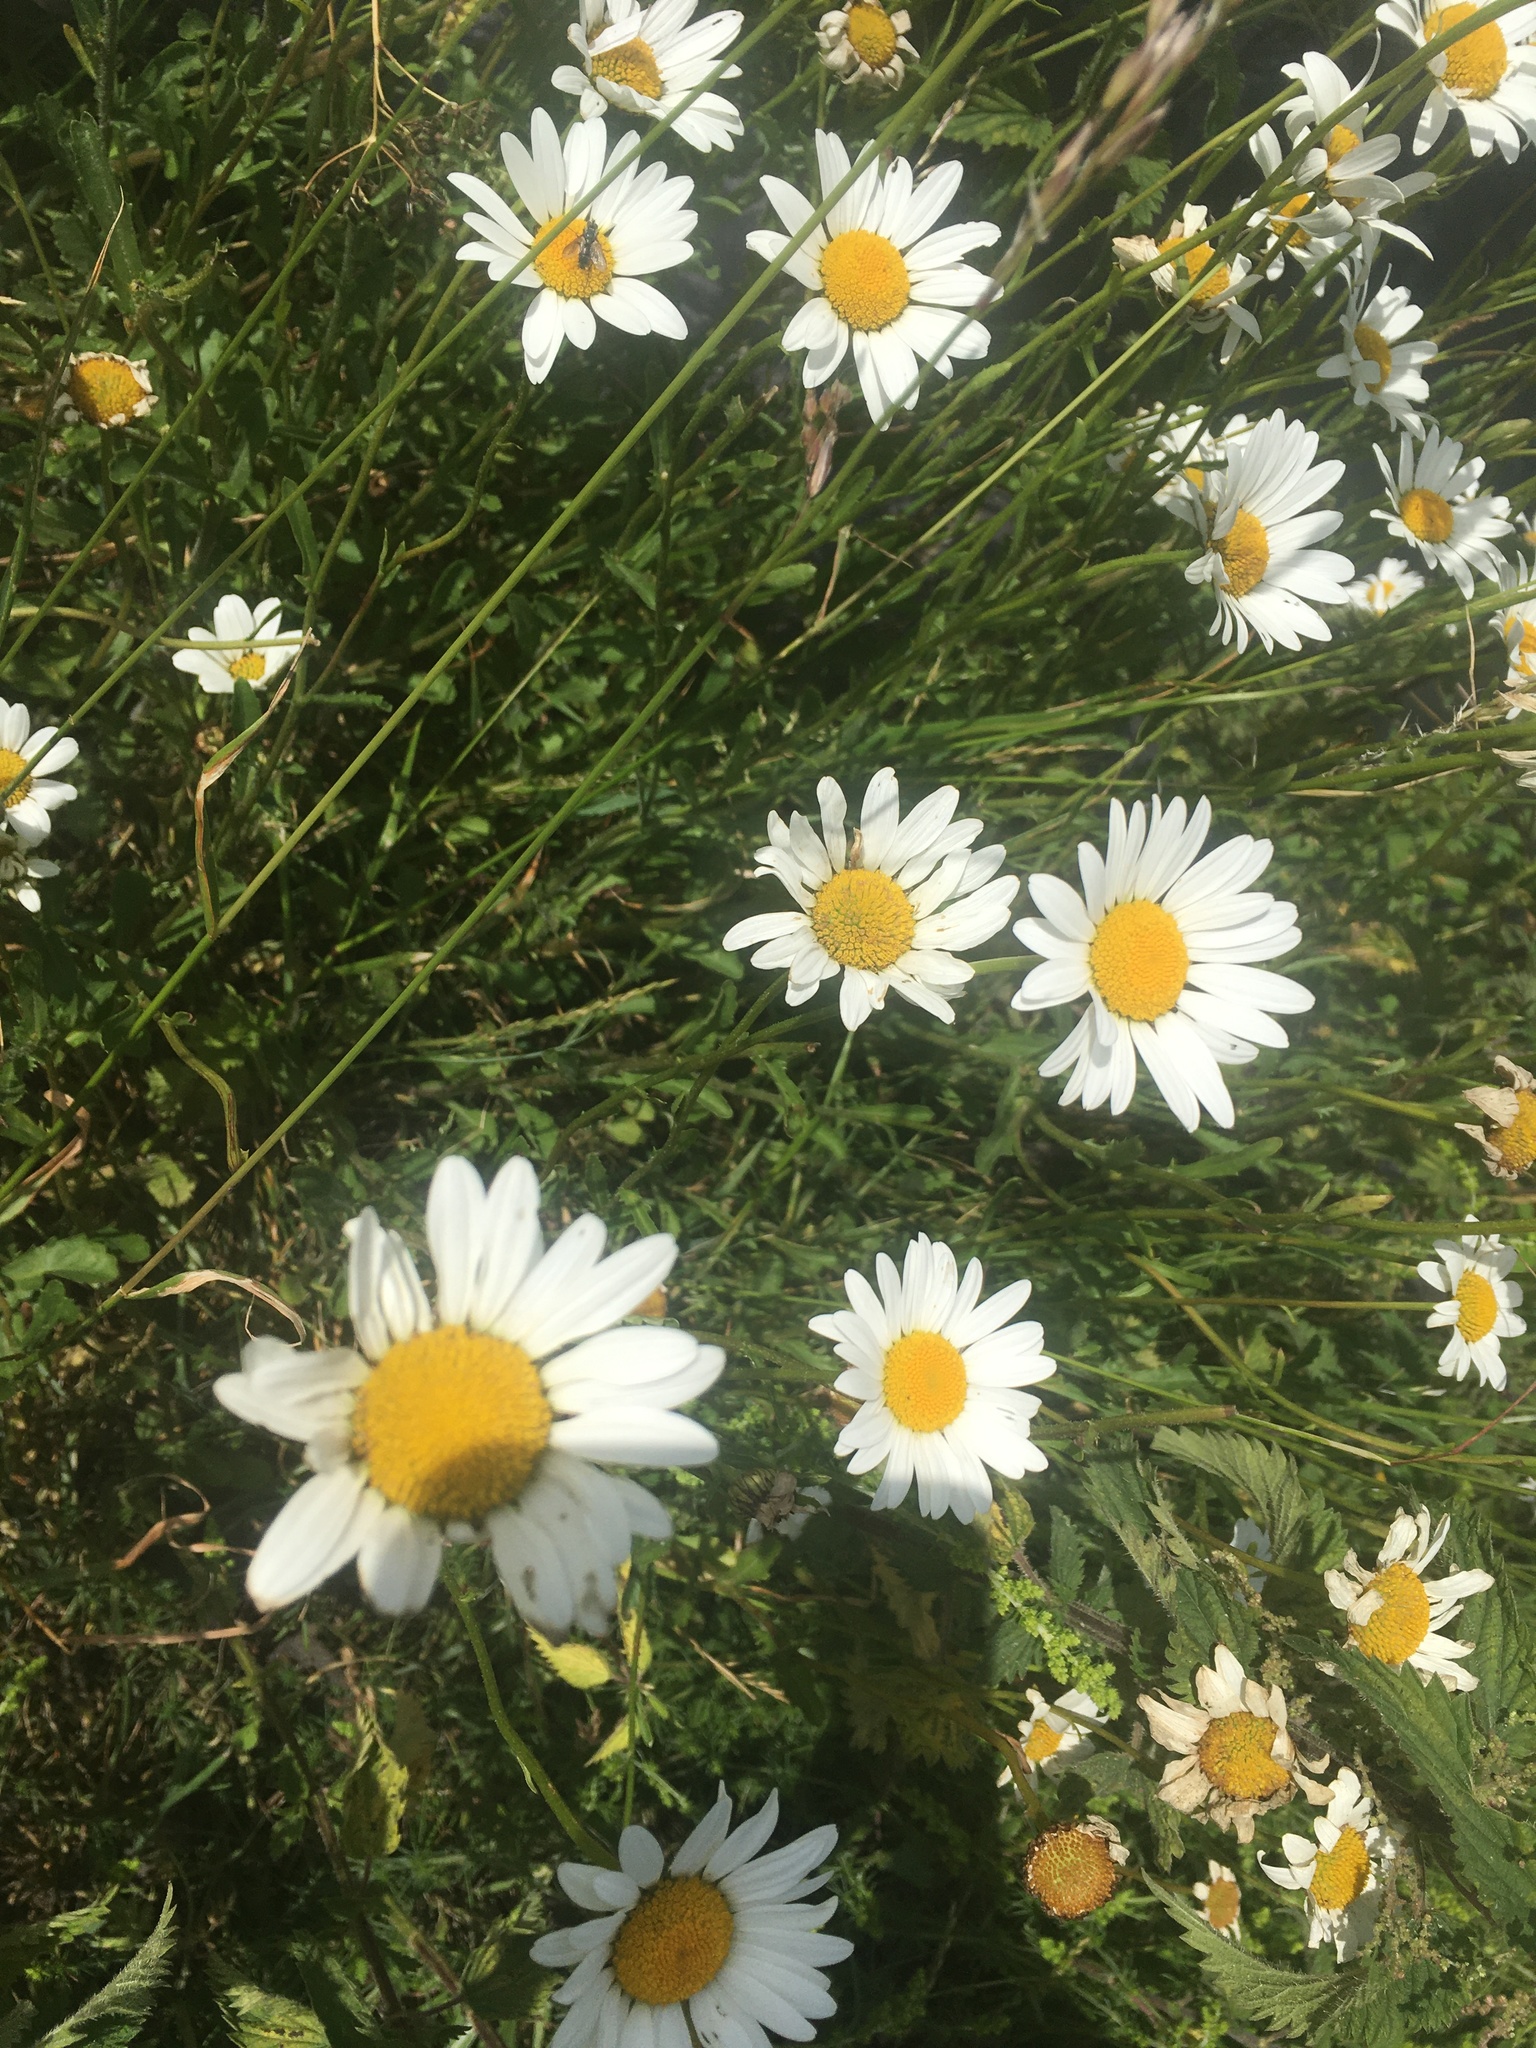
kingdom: Plantae
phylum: Tracheophyta
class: Magnoliopsida
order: Asterales
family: Asteraceae
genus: Leucanthemum
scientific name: Leucanthemum vulgare
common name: Oxeye daisy
